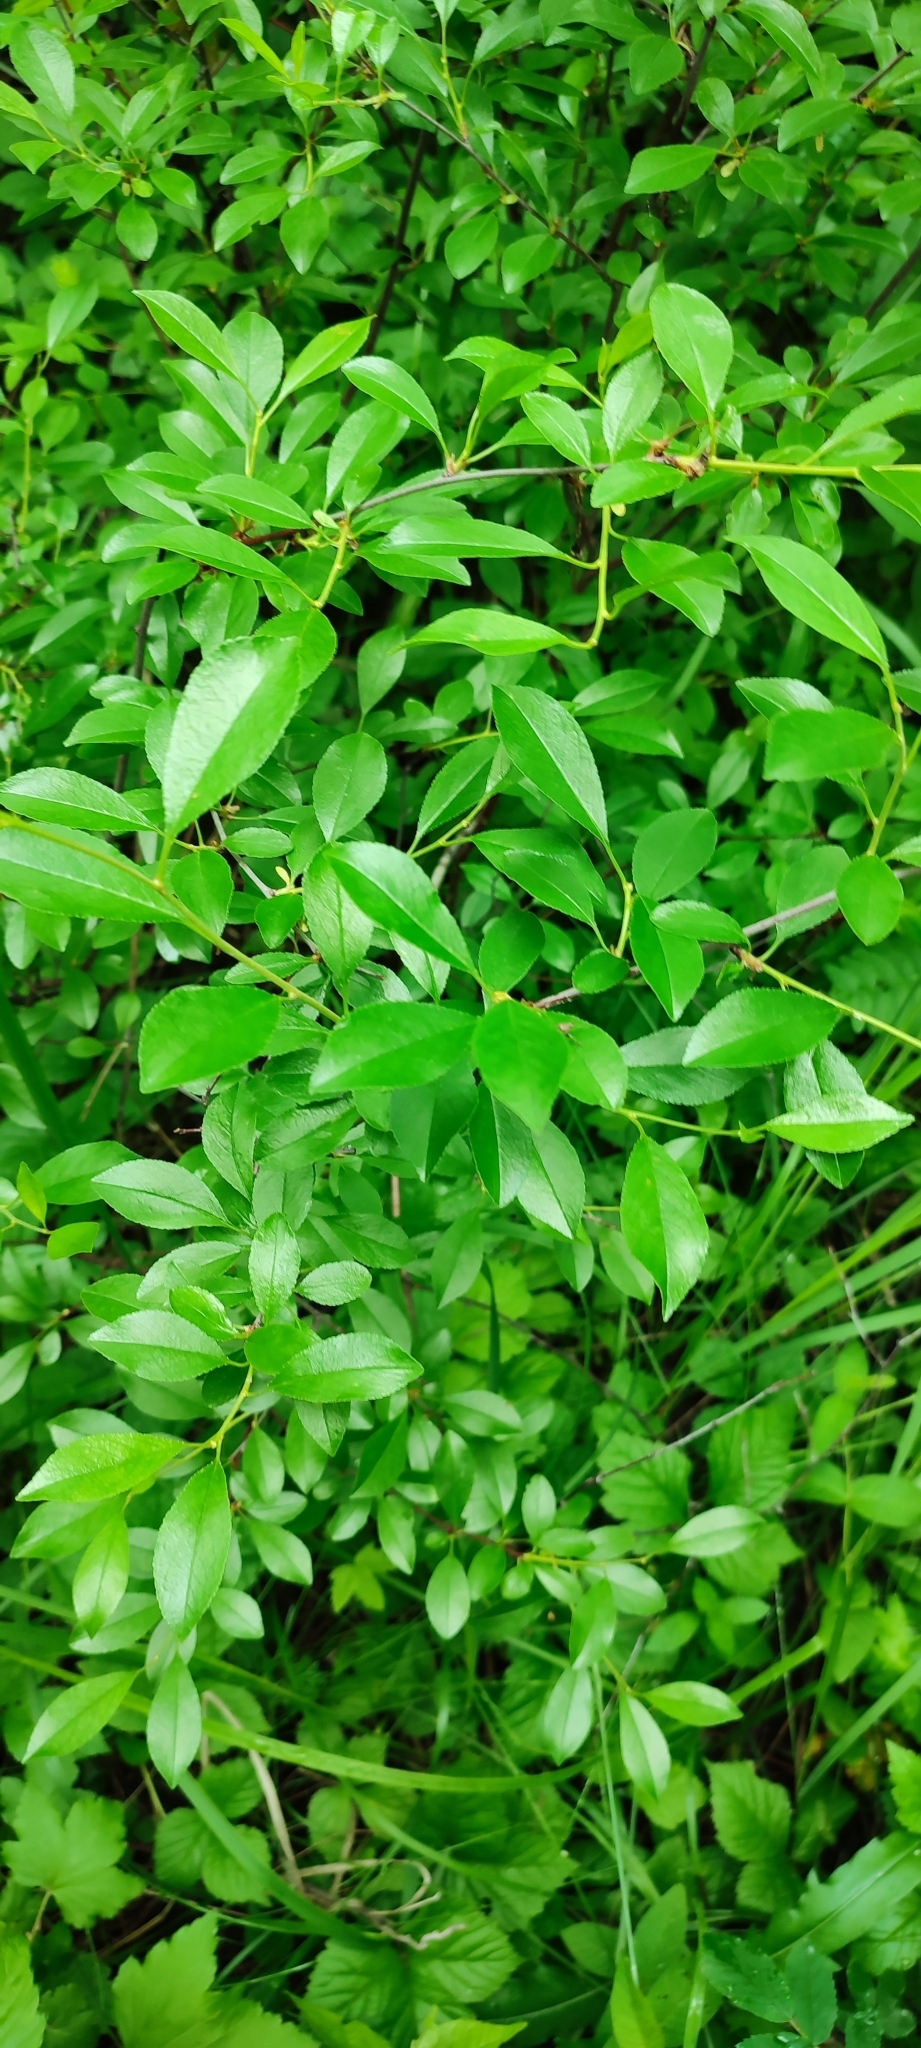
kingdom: Plantae
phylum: Tracheophyta
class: Magnoliopsida
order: Rosales
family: Rosaceae
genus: Prunus
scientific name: Prunus fruticosa
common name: European dwarf cherry
